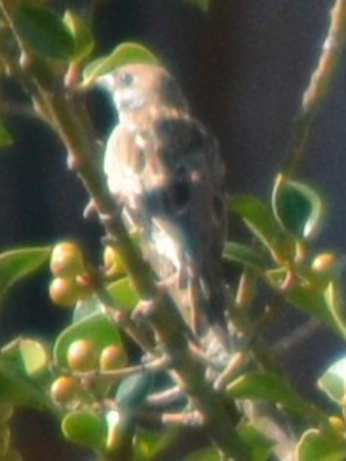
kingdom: Animalia
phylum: Chordata
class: Aves
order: Passeriformes
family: Passeridae
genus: Passer
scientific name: Passer montanus
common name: Eurasian tree sparrow
